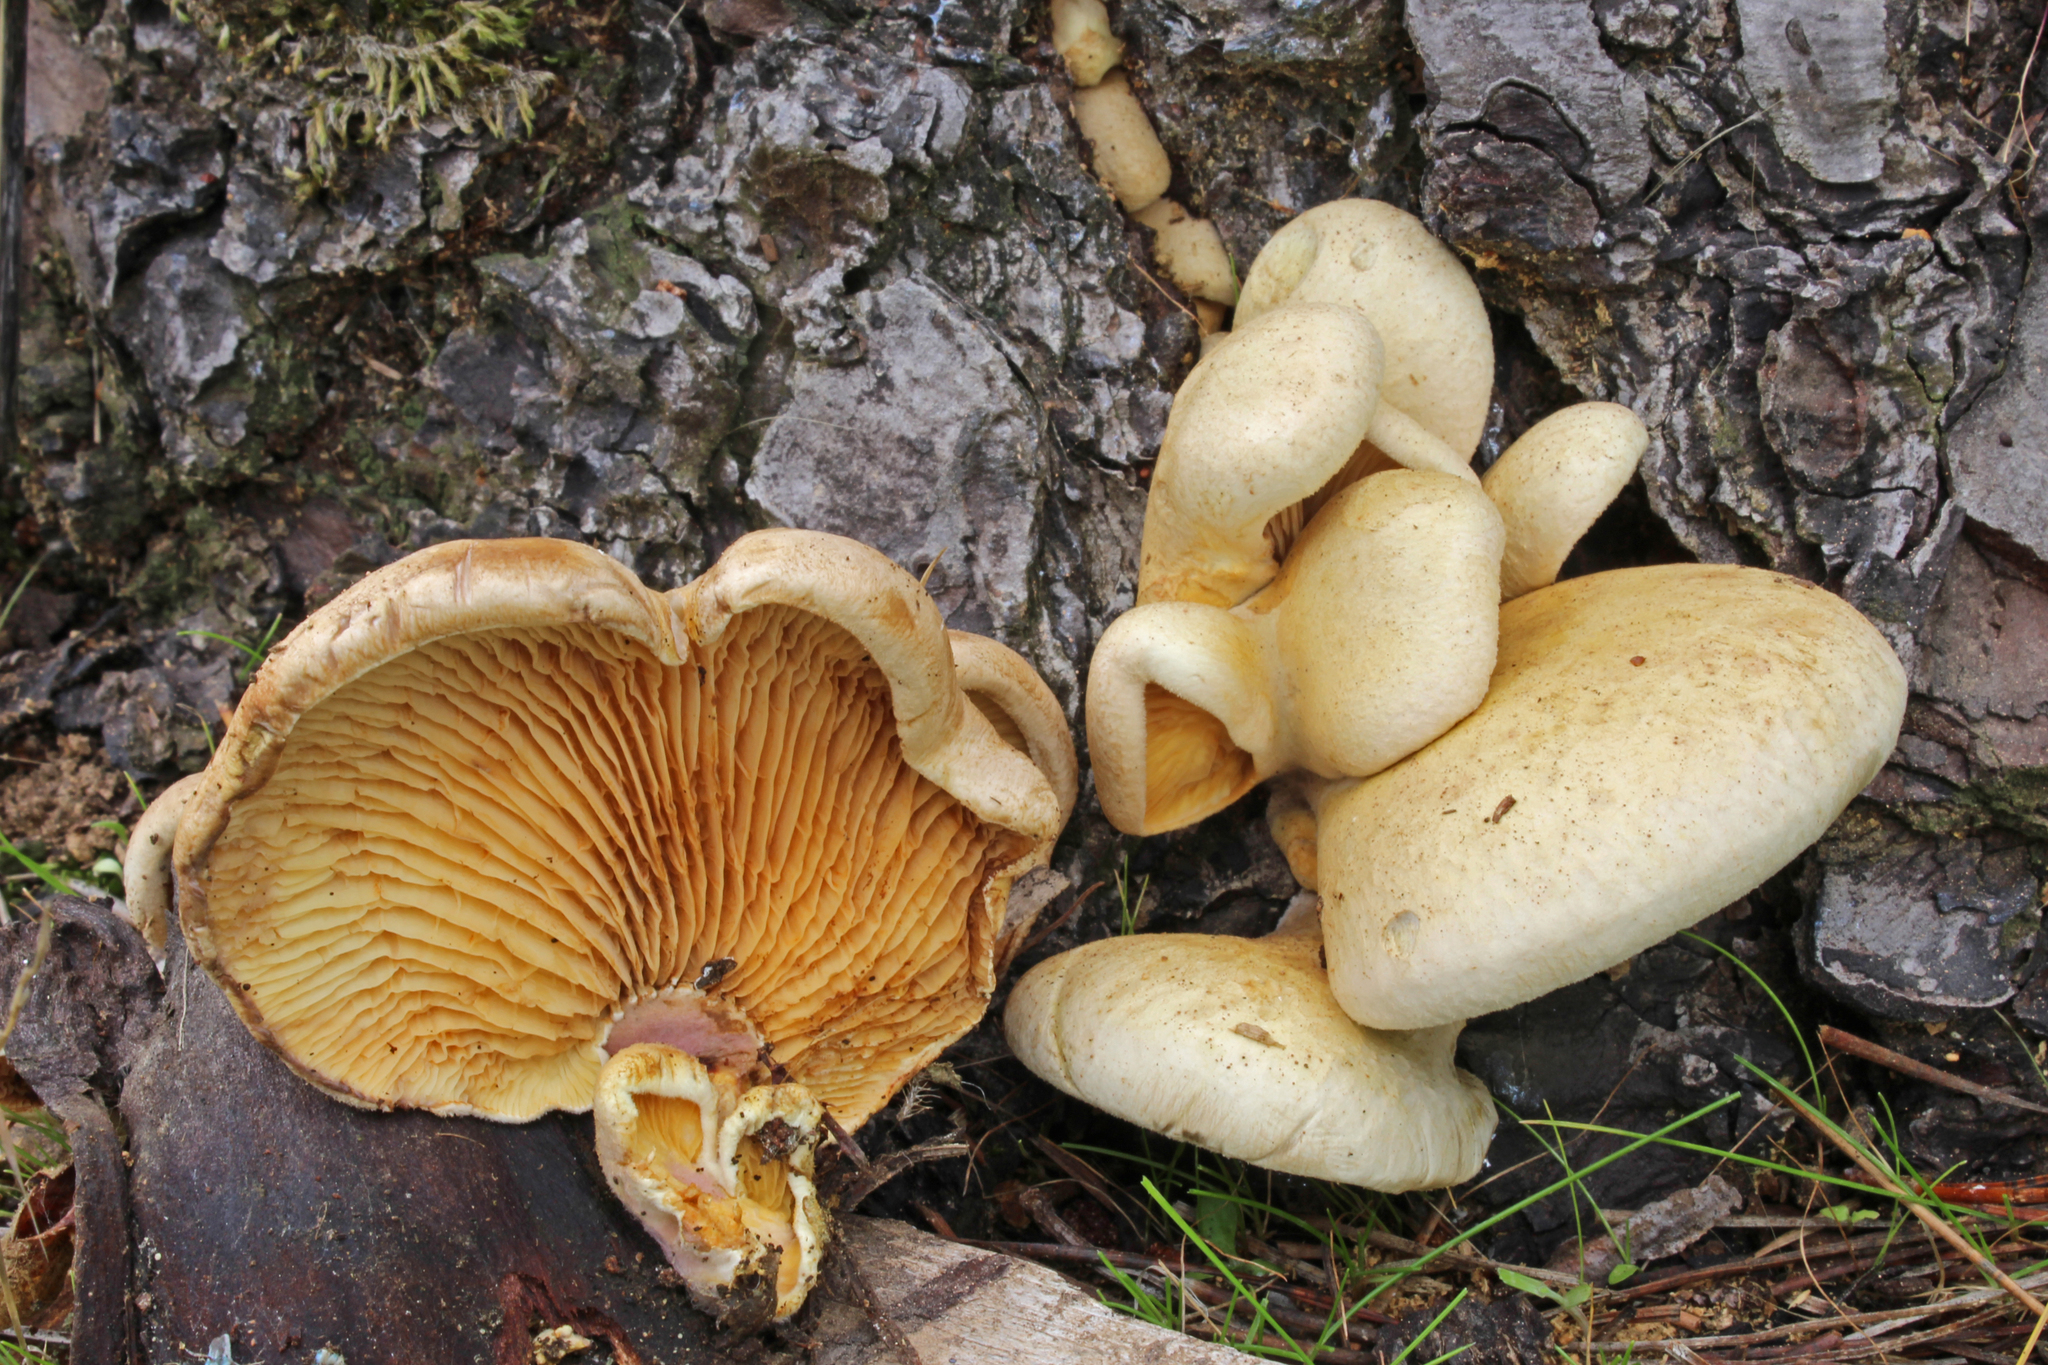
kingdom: Fungi
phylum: Basidiomycota
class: Agaricomycetes
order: Boletales
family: Tapinellaceae
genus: Tapinella
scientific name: Tapinella panuoides
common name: Oyster rollrim
